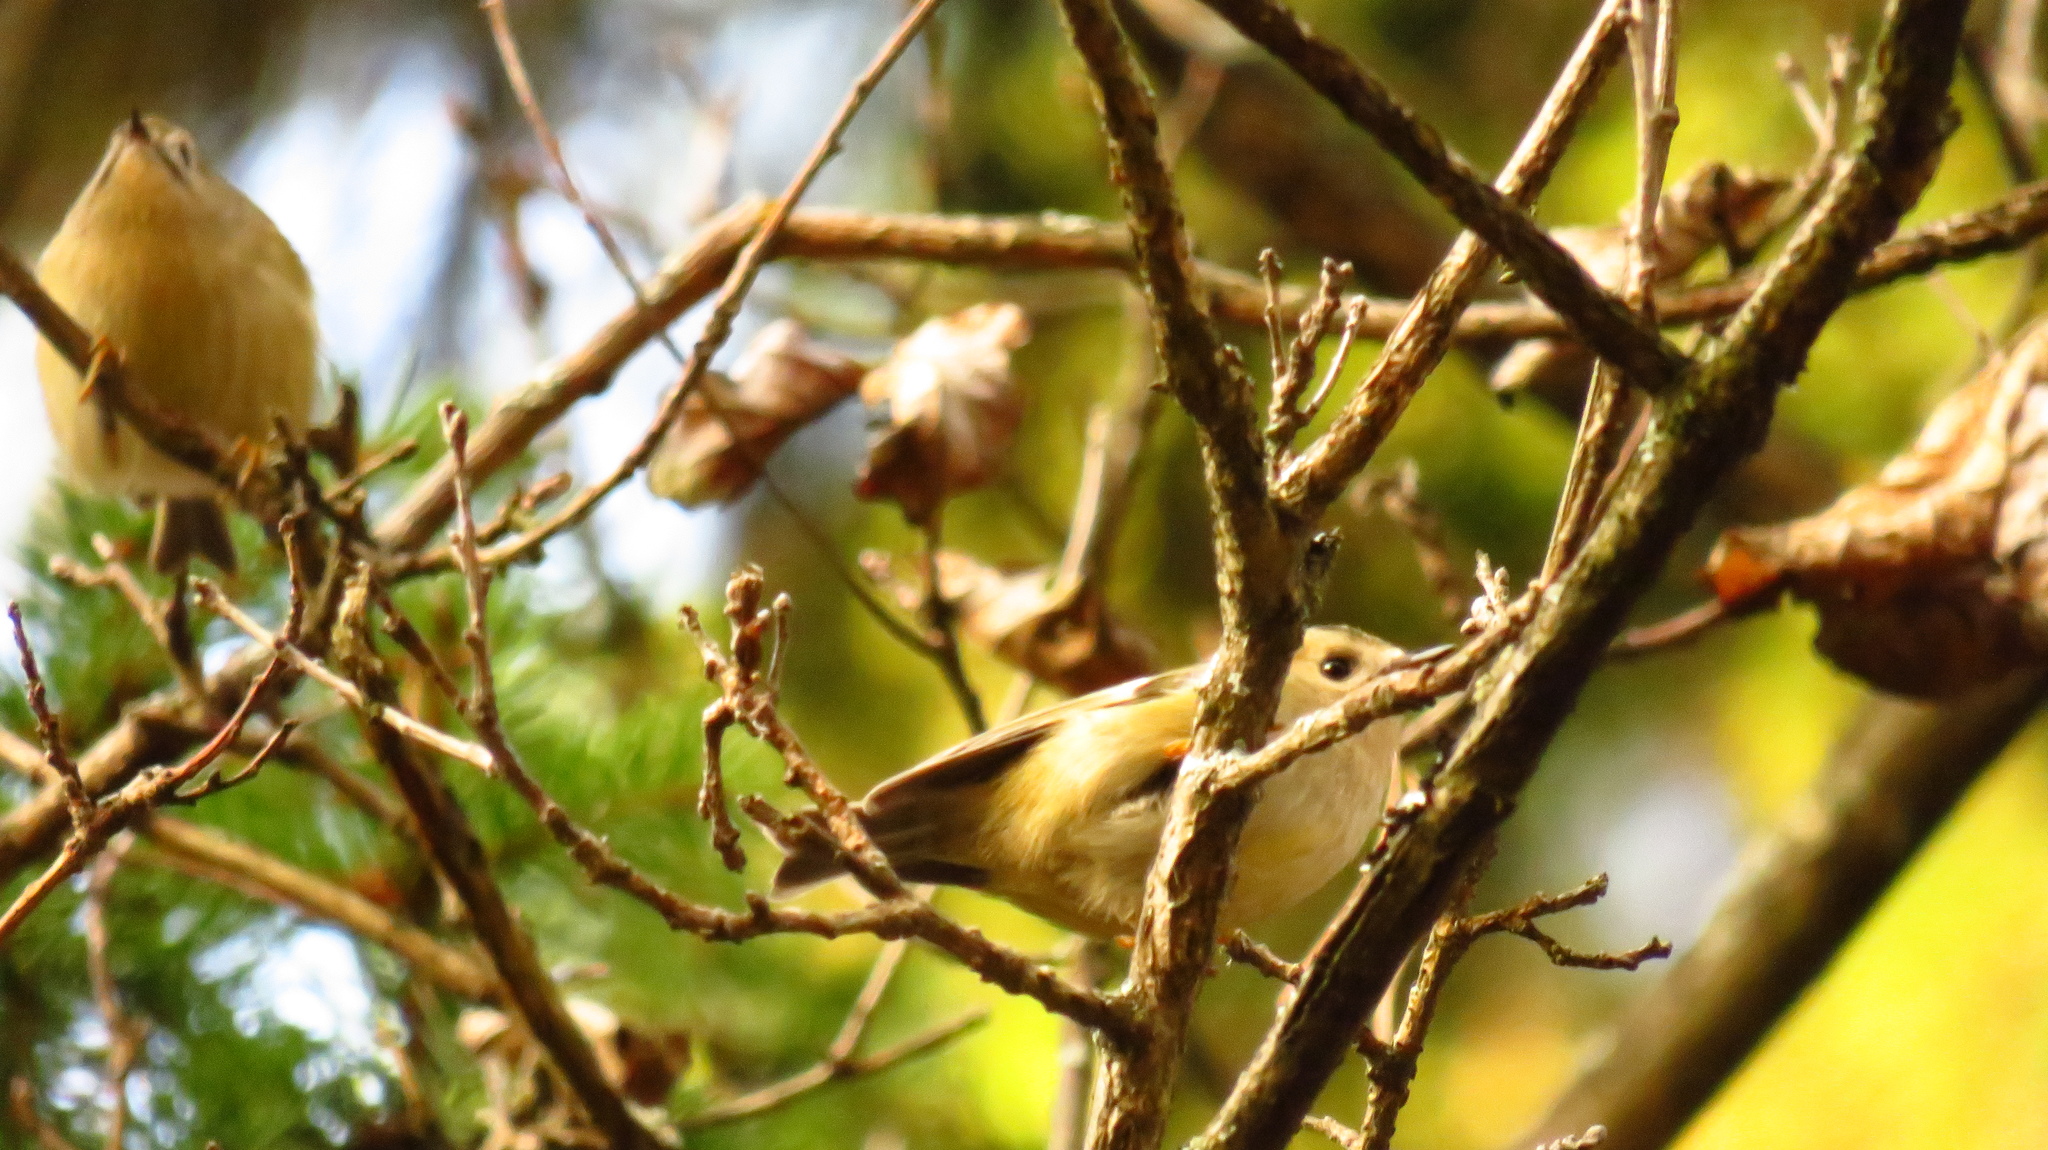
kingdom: Animalia
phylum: Chordata
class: Aves
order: Passeriformes
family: Regulidae
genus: Regulus
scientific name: Regulus regulus
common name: Goldcrest
